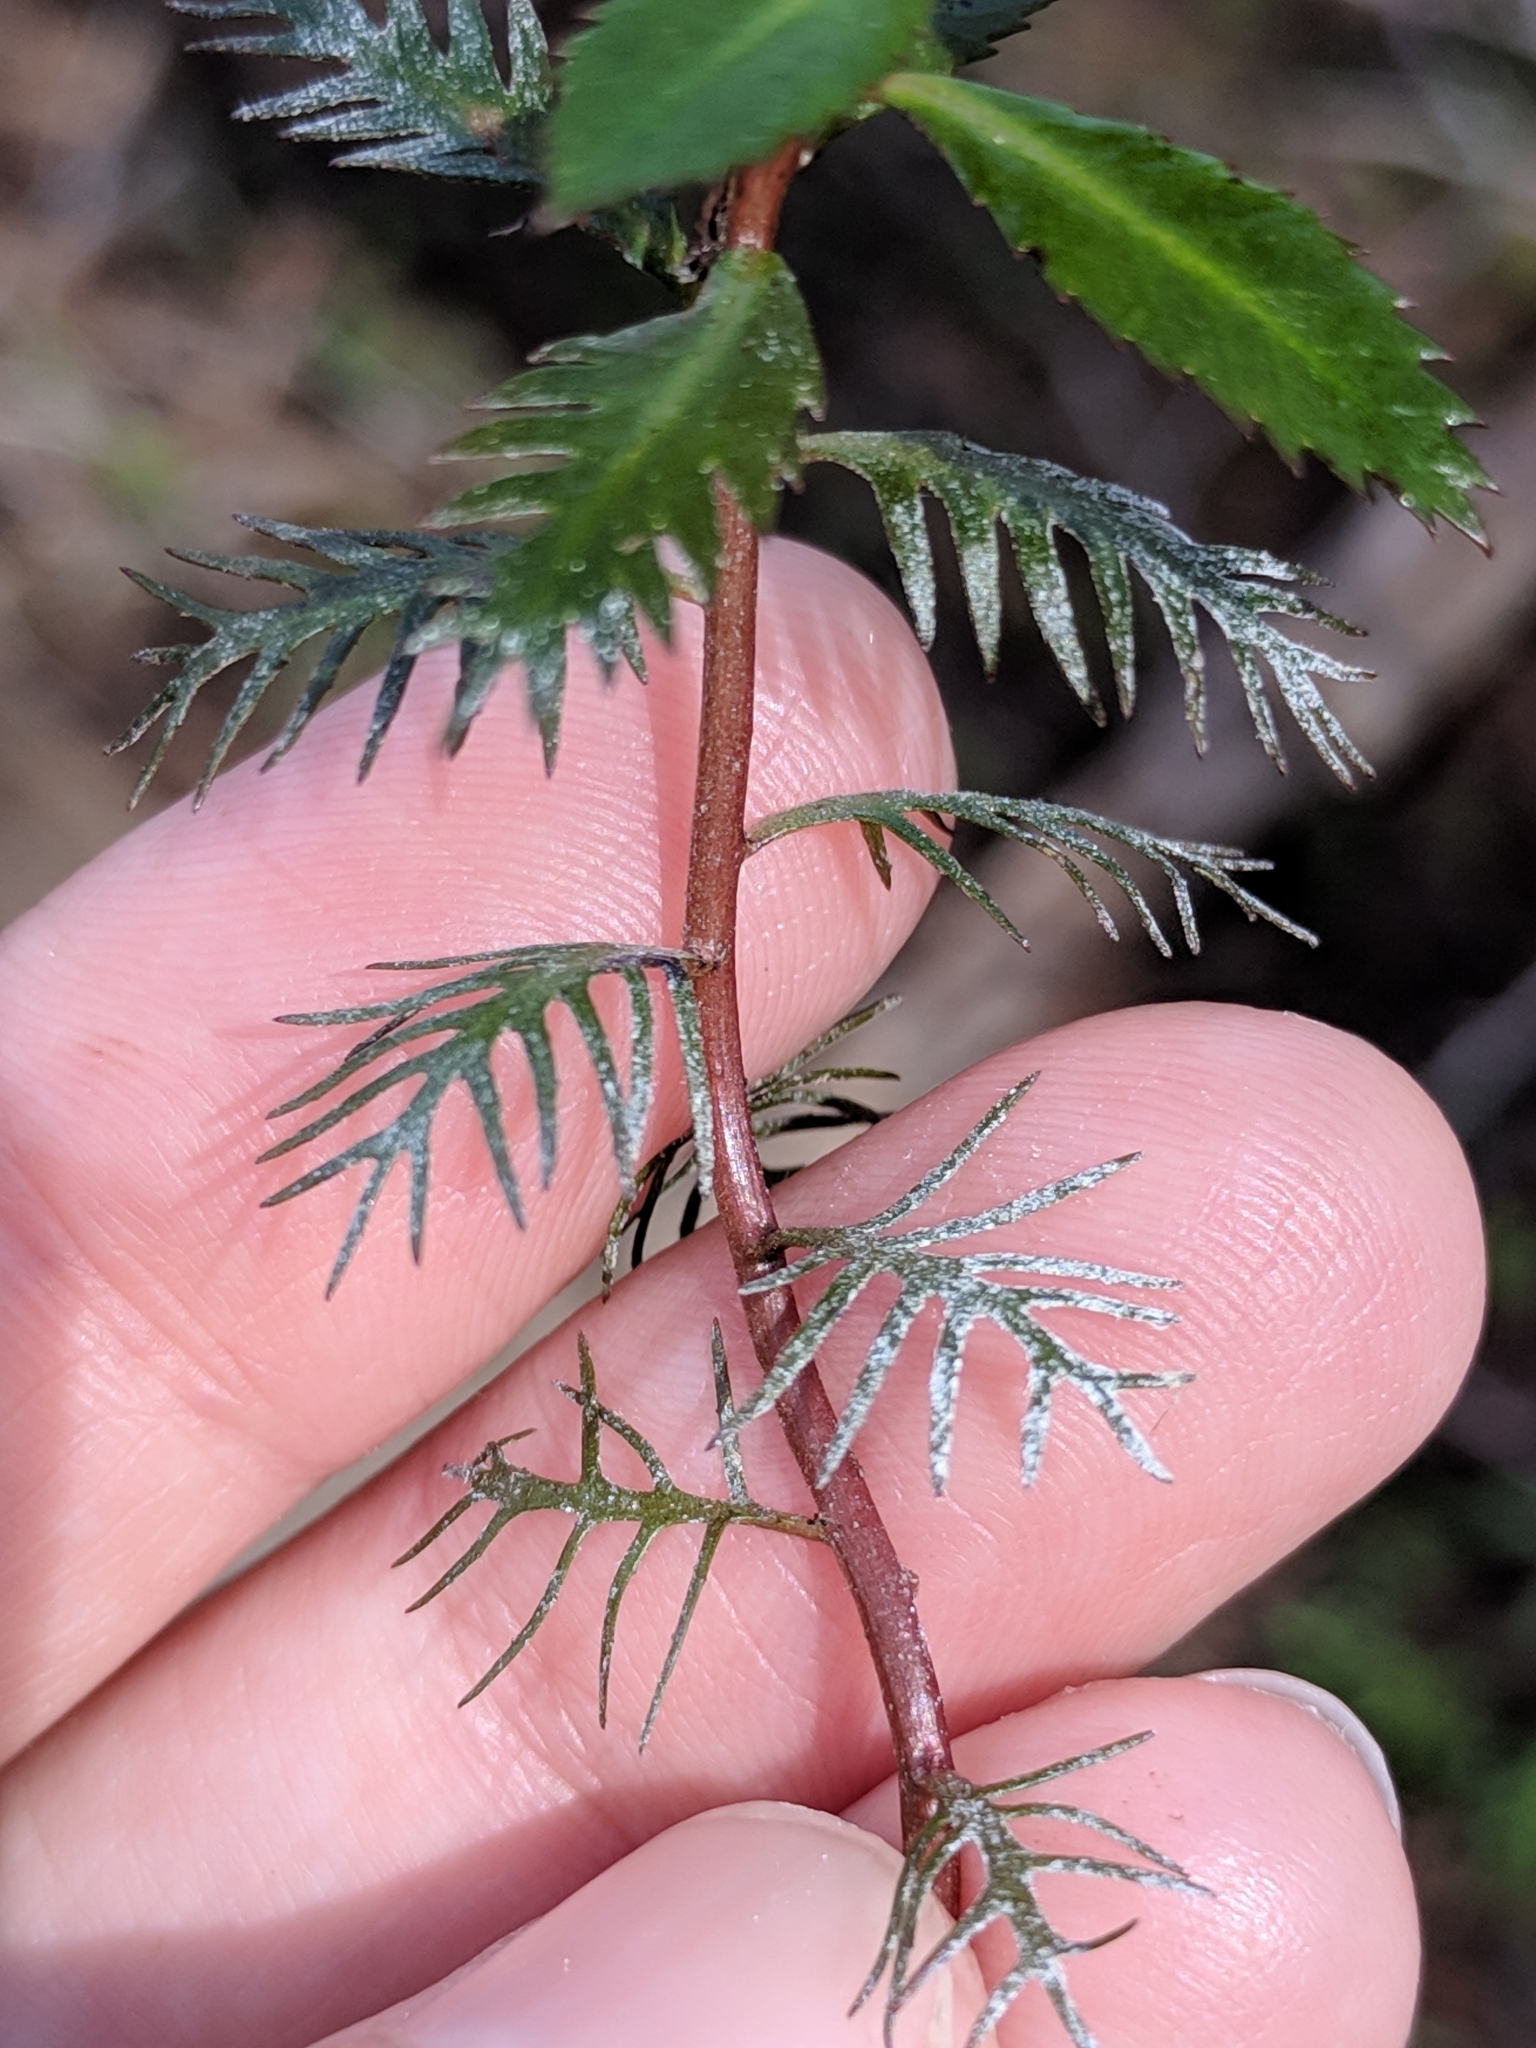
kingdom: Plantae
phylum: Tracheophyta
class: Magnoliopsida
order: Saxifragales
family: Haloragaceae
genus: Proserpinaca
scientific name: Proserpinaca palustris
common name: Marsh mermaidweed
